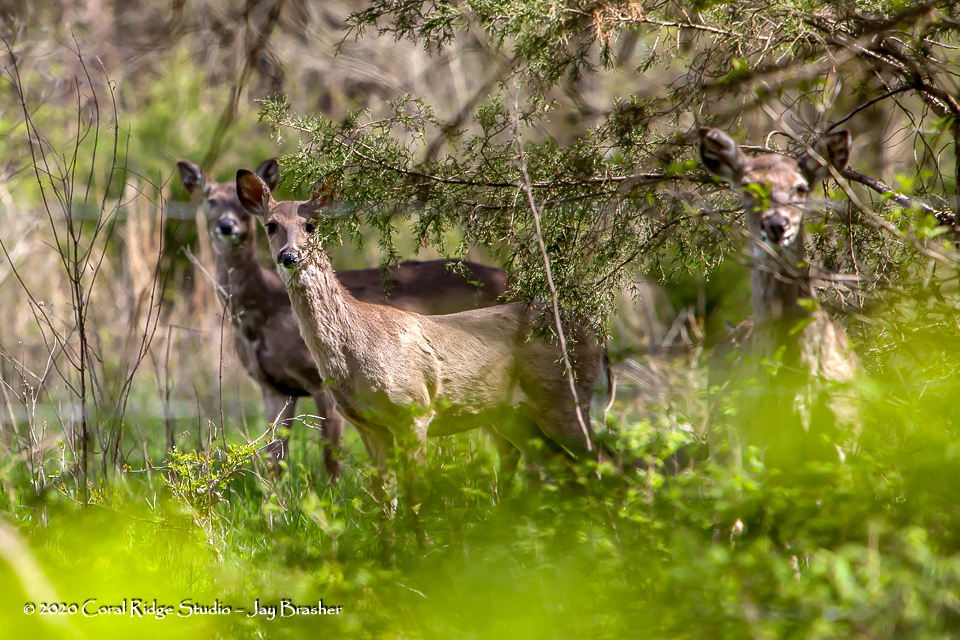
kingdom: Animalia
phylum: Chordata
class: Mammalia
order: Artiodactyla
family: Cervidae
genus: Odocoileus
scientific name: Odocoileus virginianus
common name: White-tailed deer
